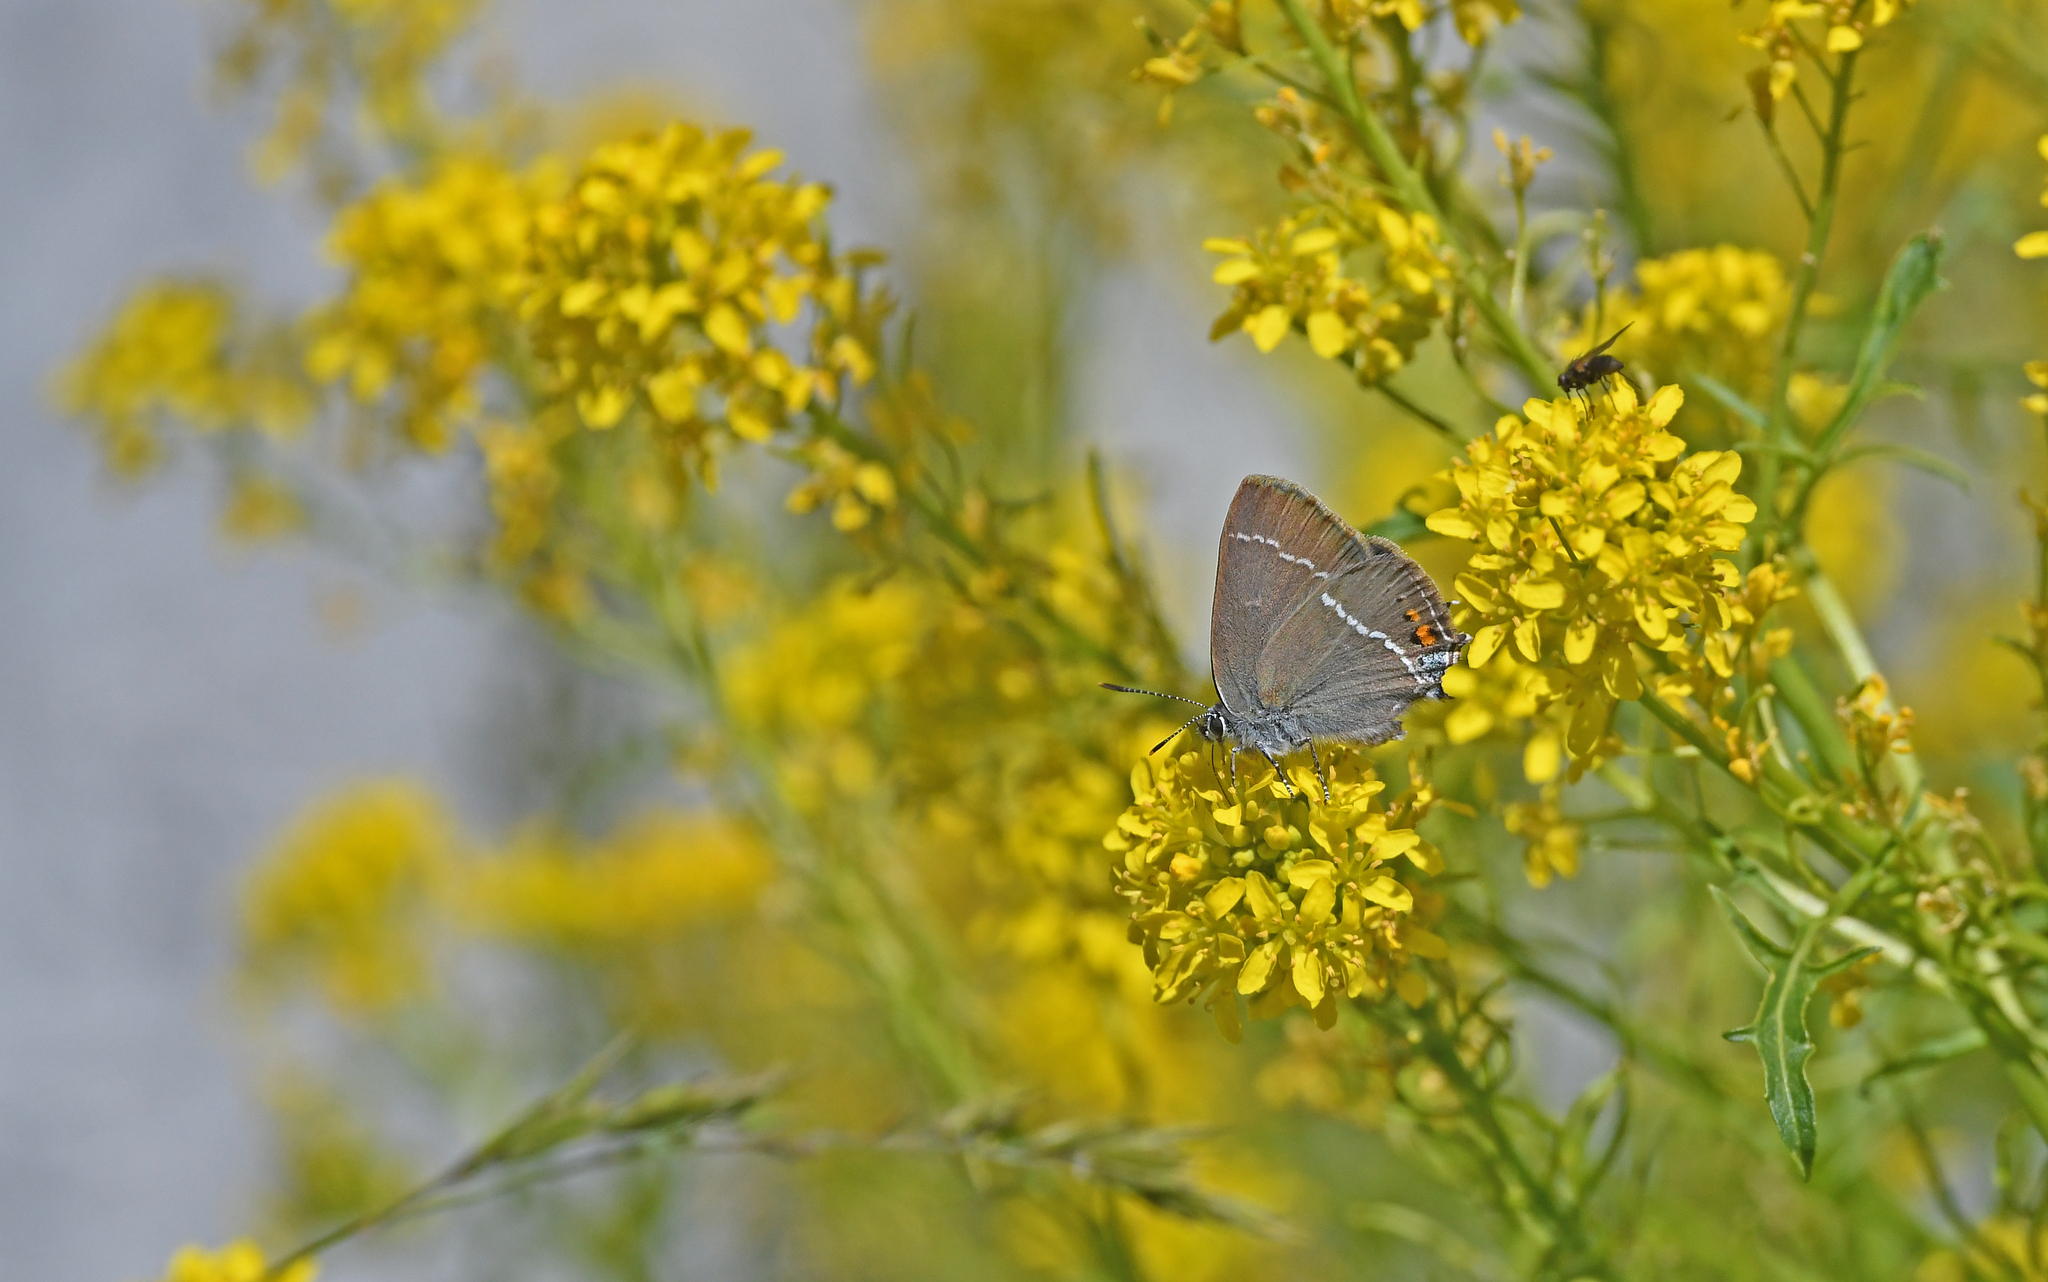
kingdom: Animalia
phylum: Arthropoda
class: Insecta
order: Lepidoptera
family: Lycaenidae
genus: Tuttiola
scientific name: Tuttiola spini
